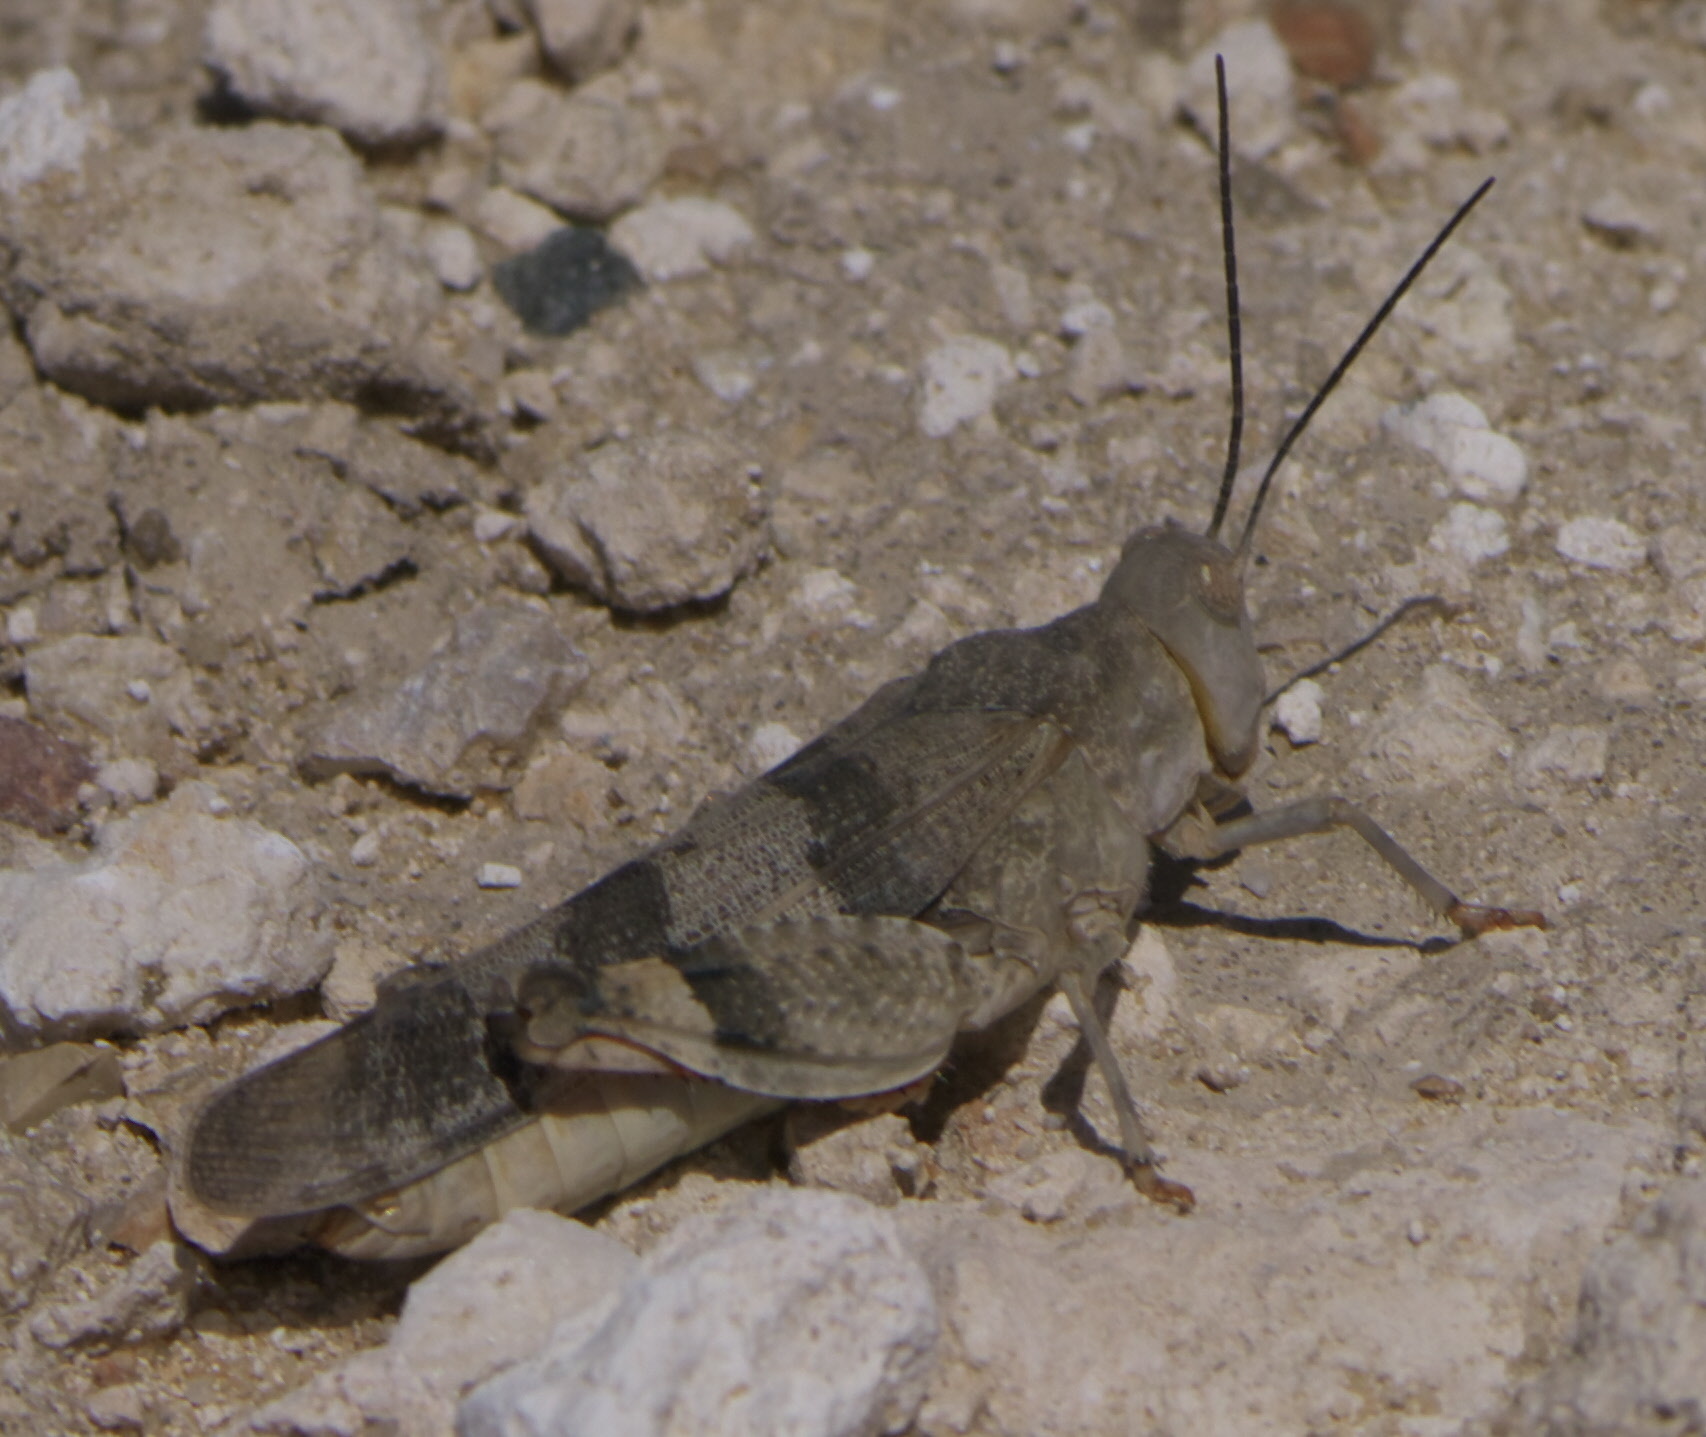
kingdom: Animalia
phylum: Arthropoda
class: Insecta
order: Orthoptera
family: Acrididae
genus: Hadrotettix
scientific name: Hadrotettix trifasciatus
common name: Threebanded grasshopper
